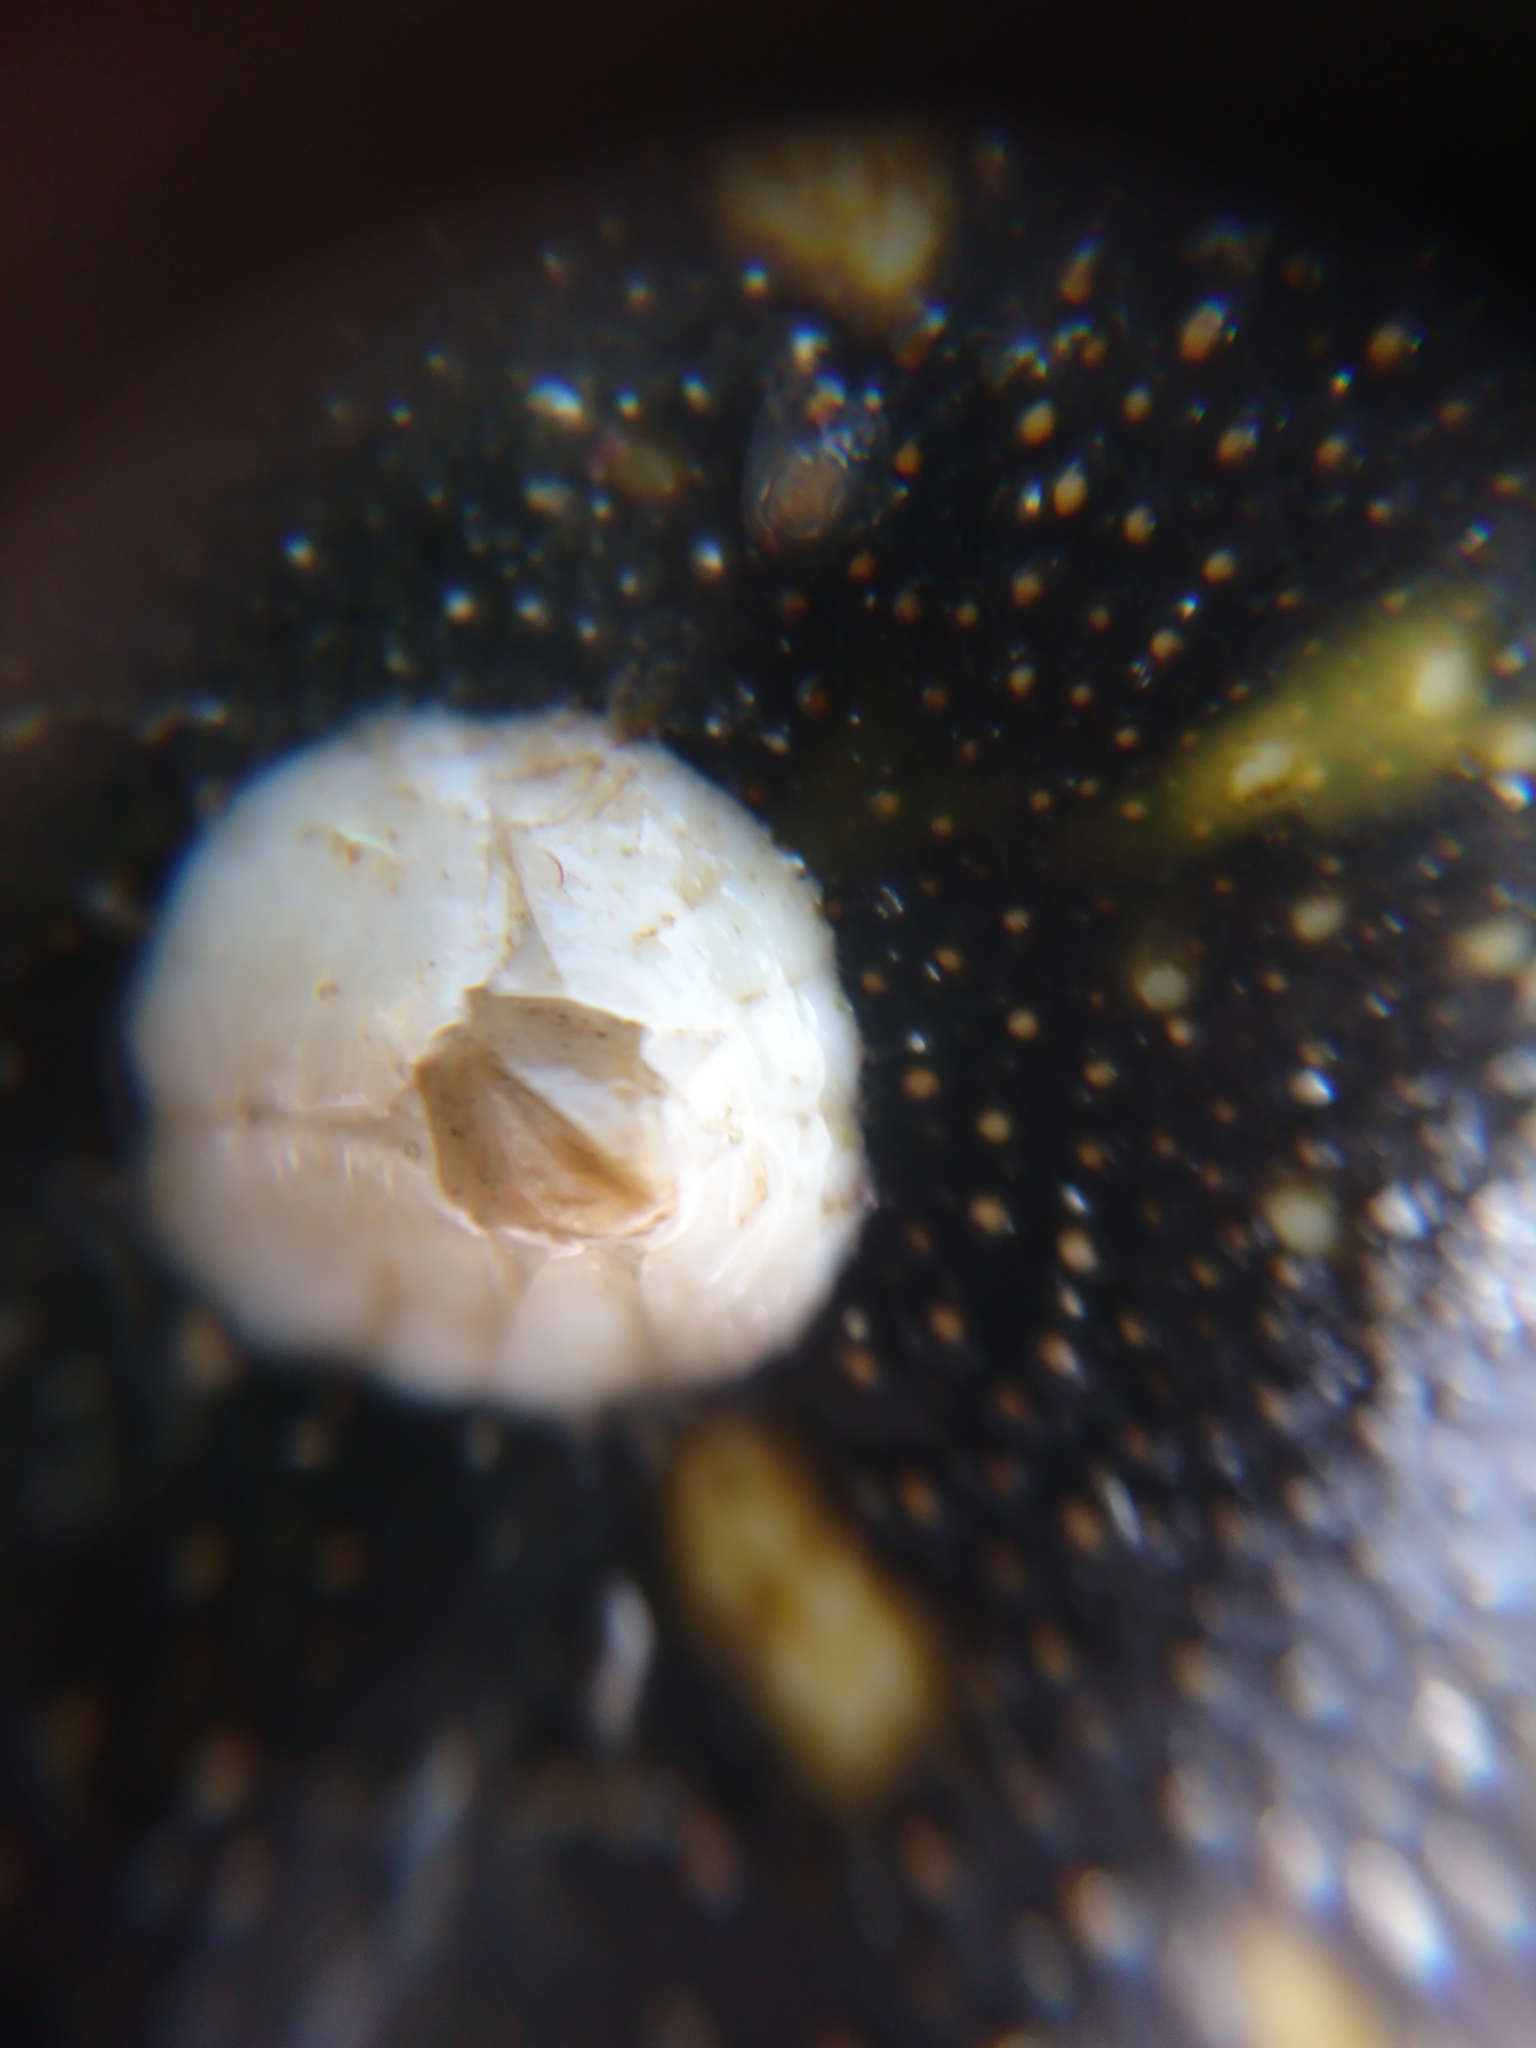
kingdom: Animalia
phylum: Arthropoda
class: Maxillopoda
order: Sessilia
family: Balanidae
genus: Balanus
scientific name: Balanus crenatus
